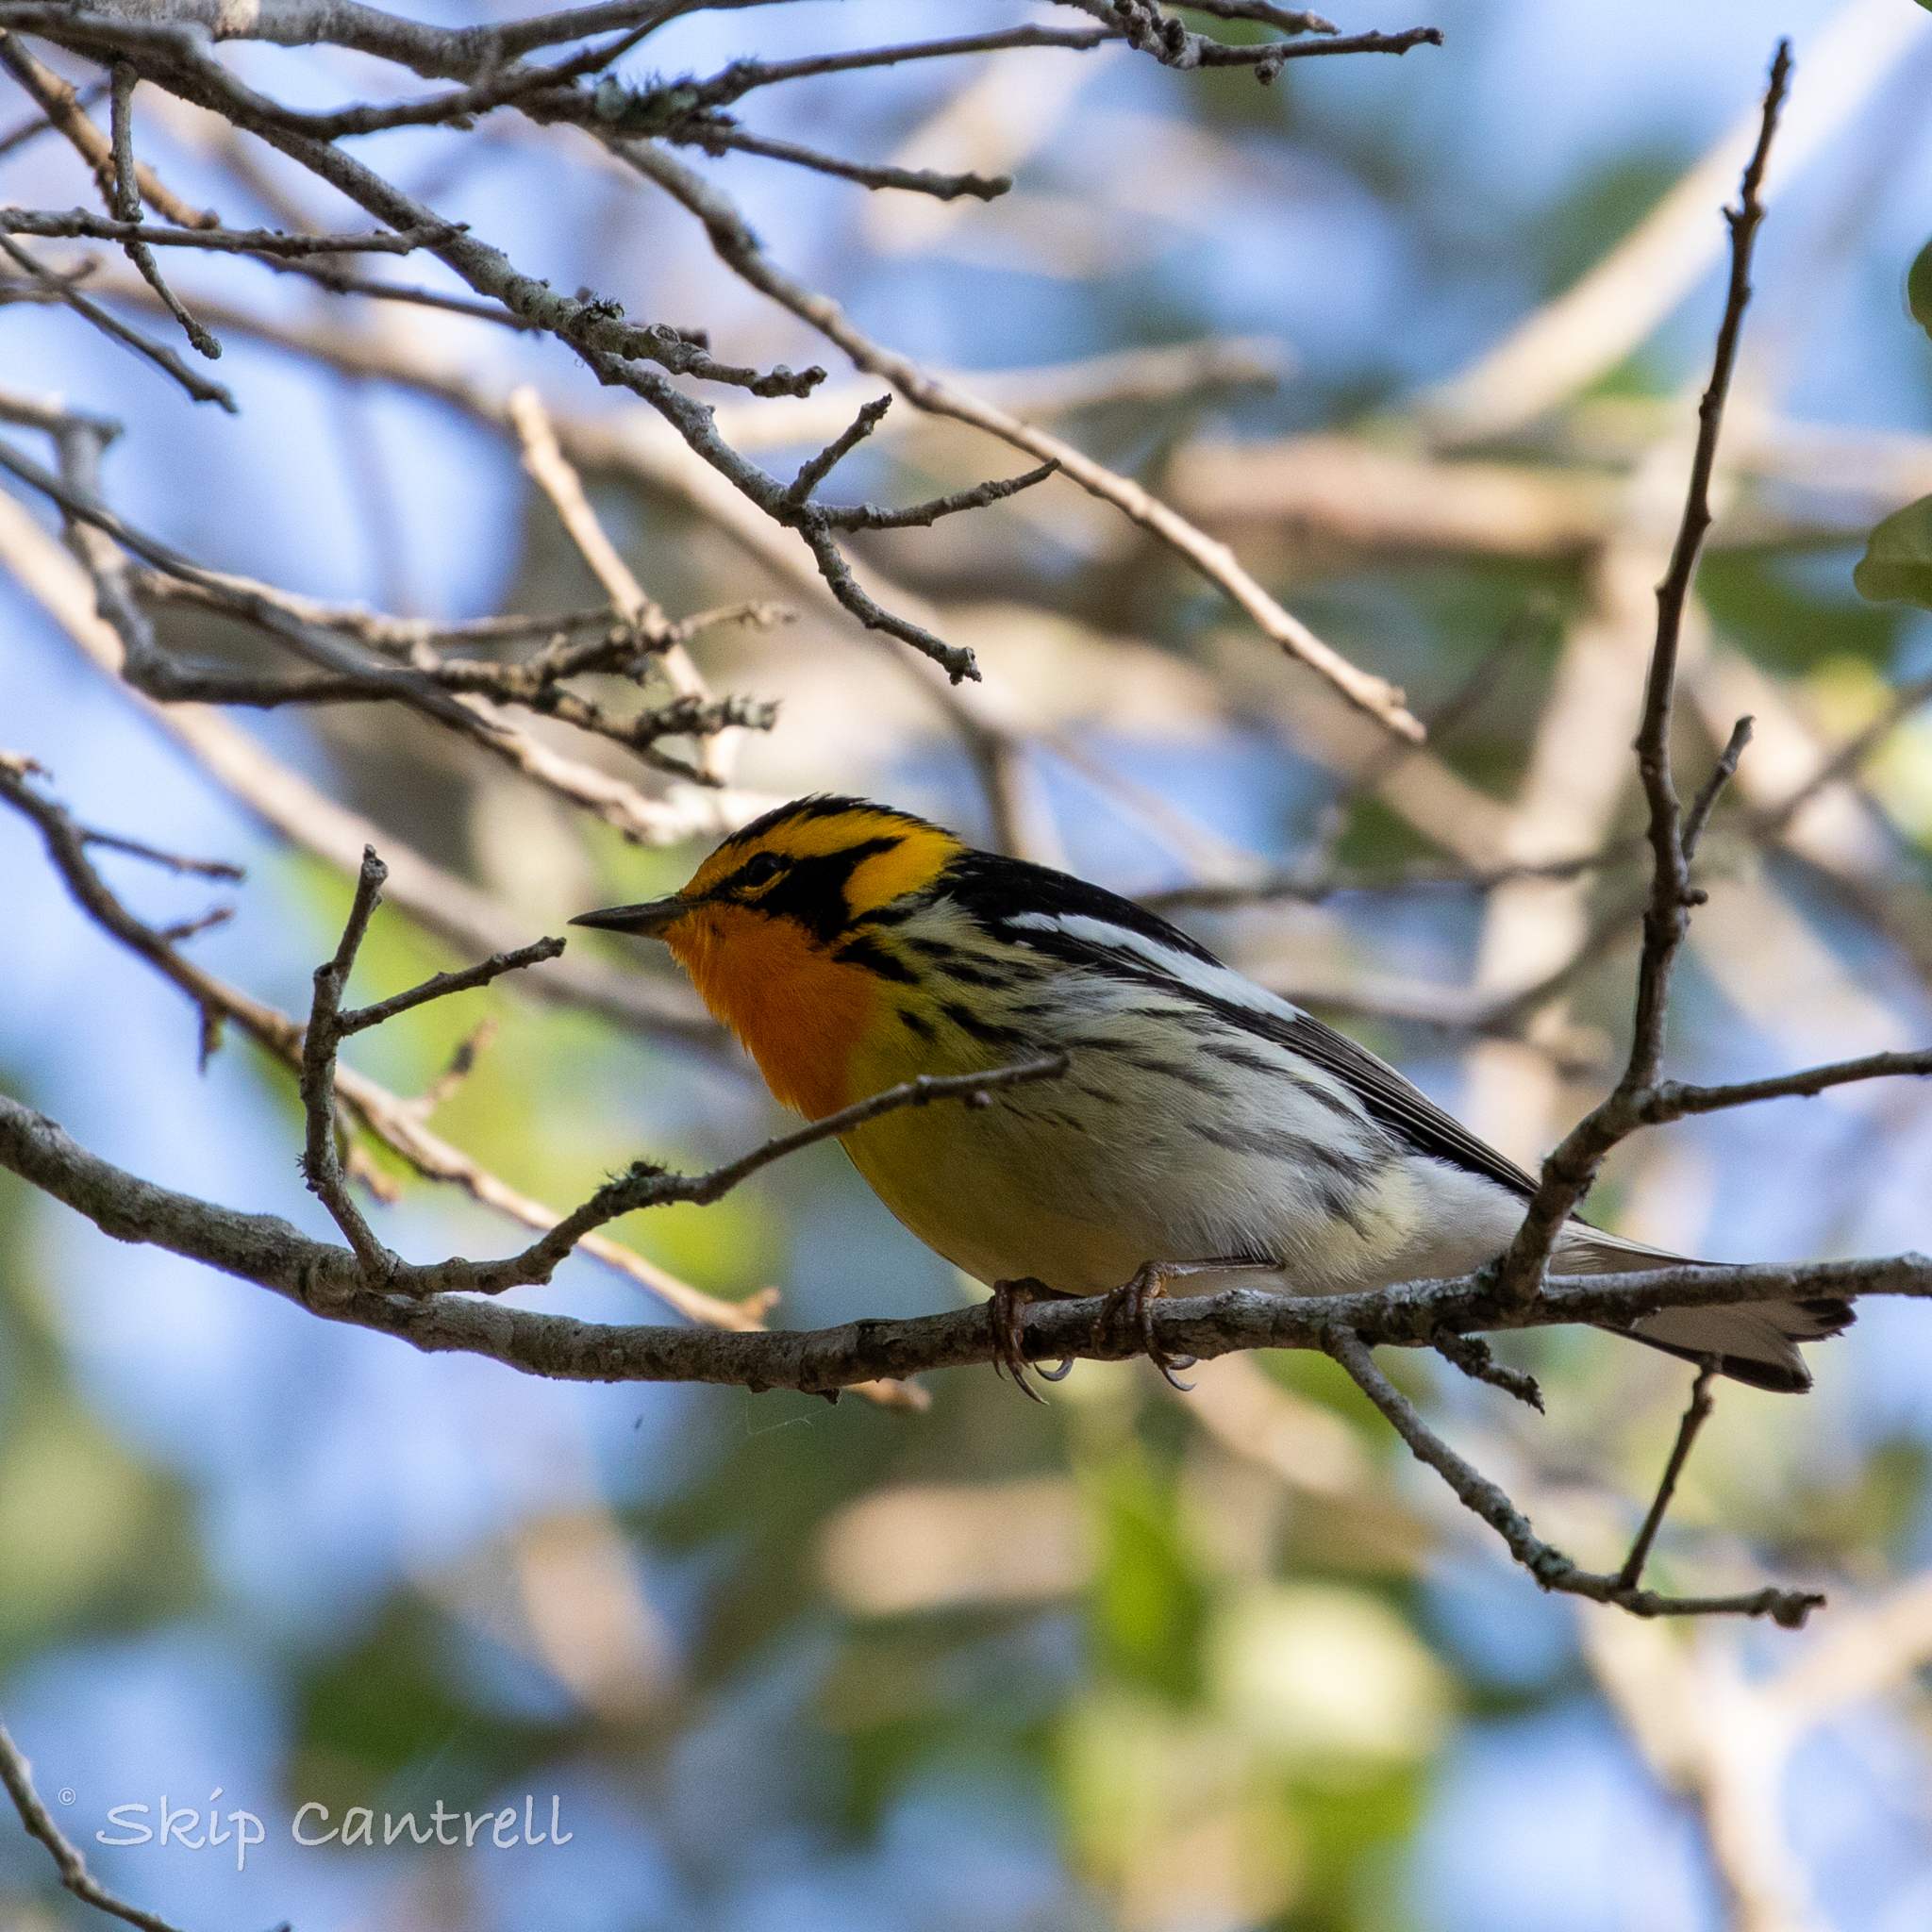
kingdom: Animalia
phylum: Chordata
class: Aves
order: Passeriformes
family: Parulidae
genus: Setophaga
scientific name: Setophaga fusca
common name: Blackburnian warbler
